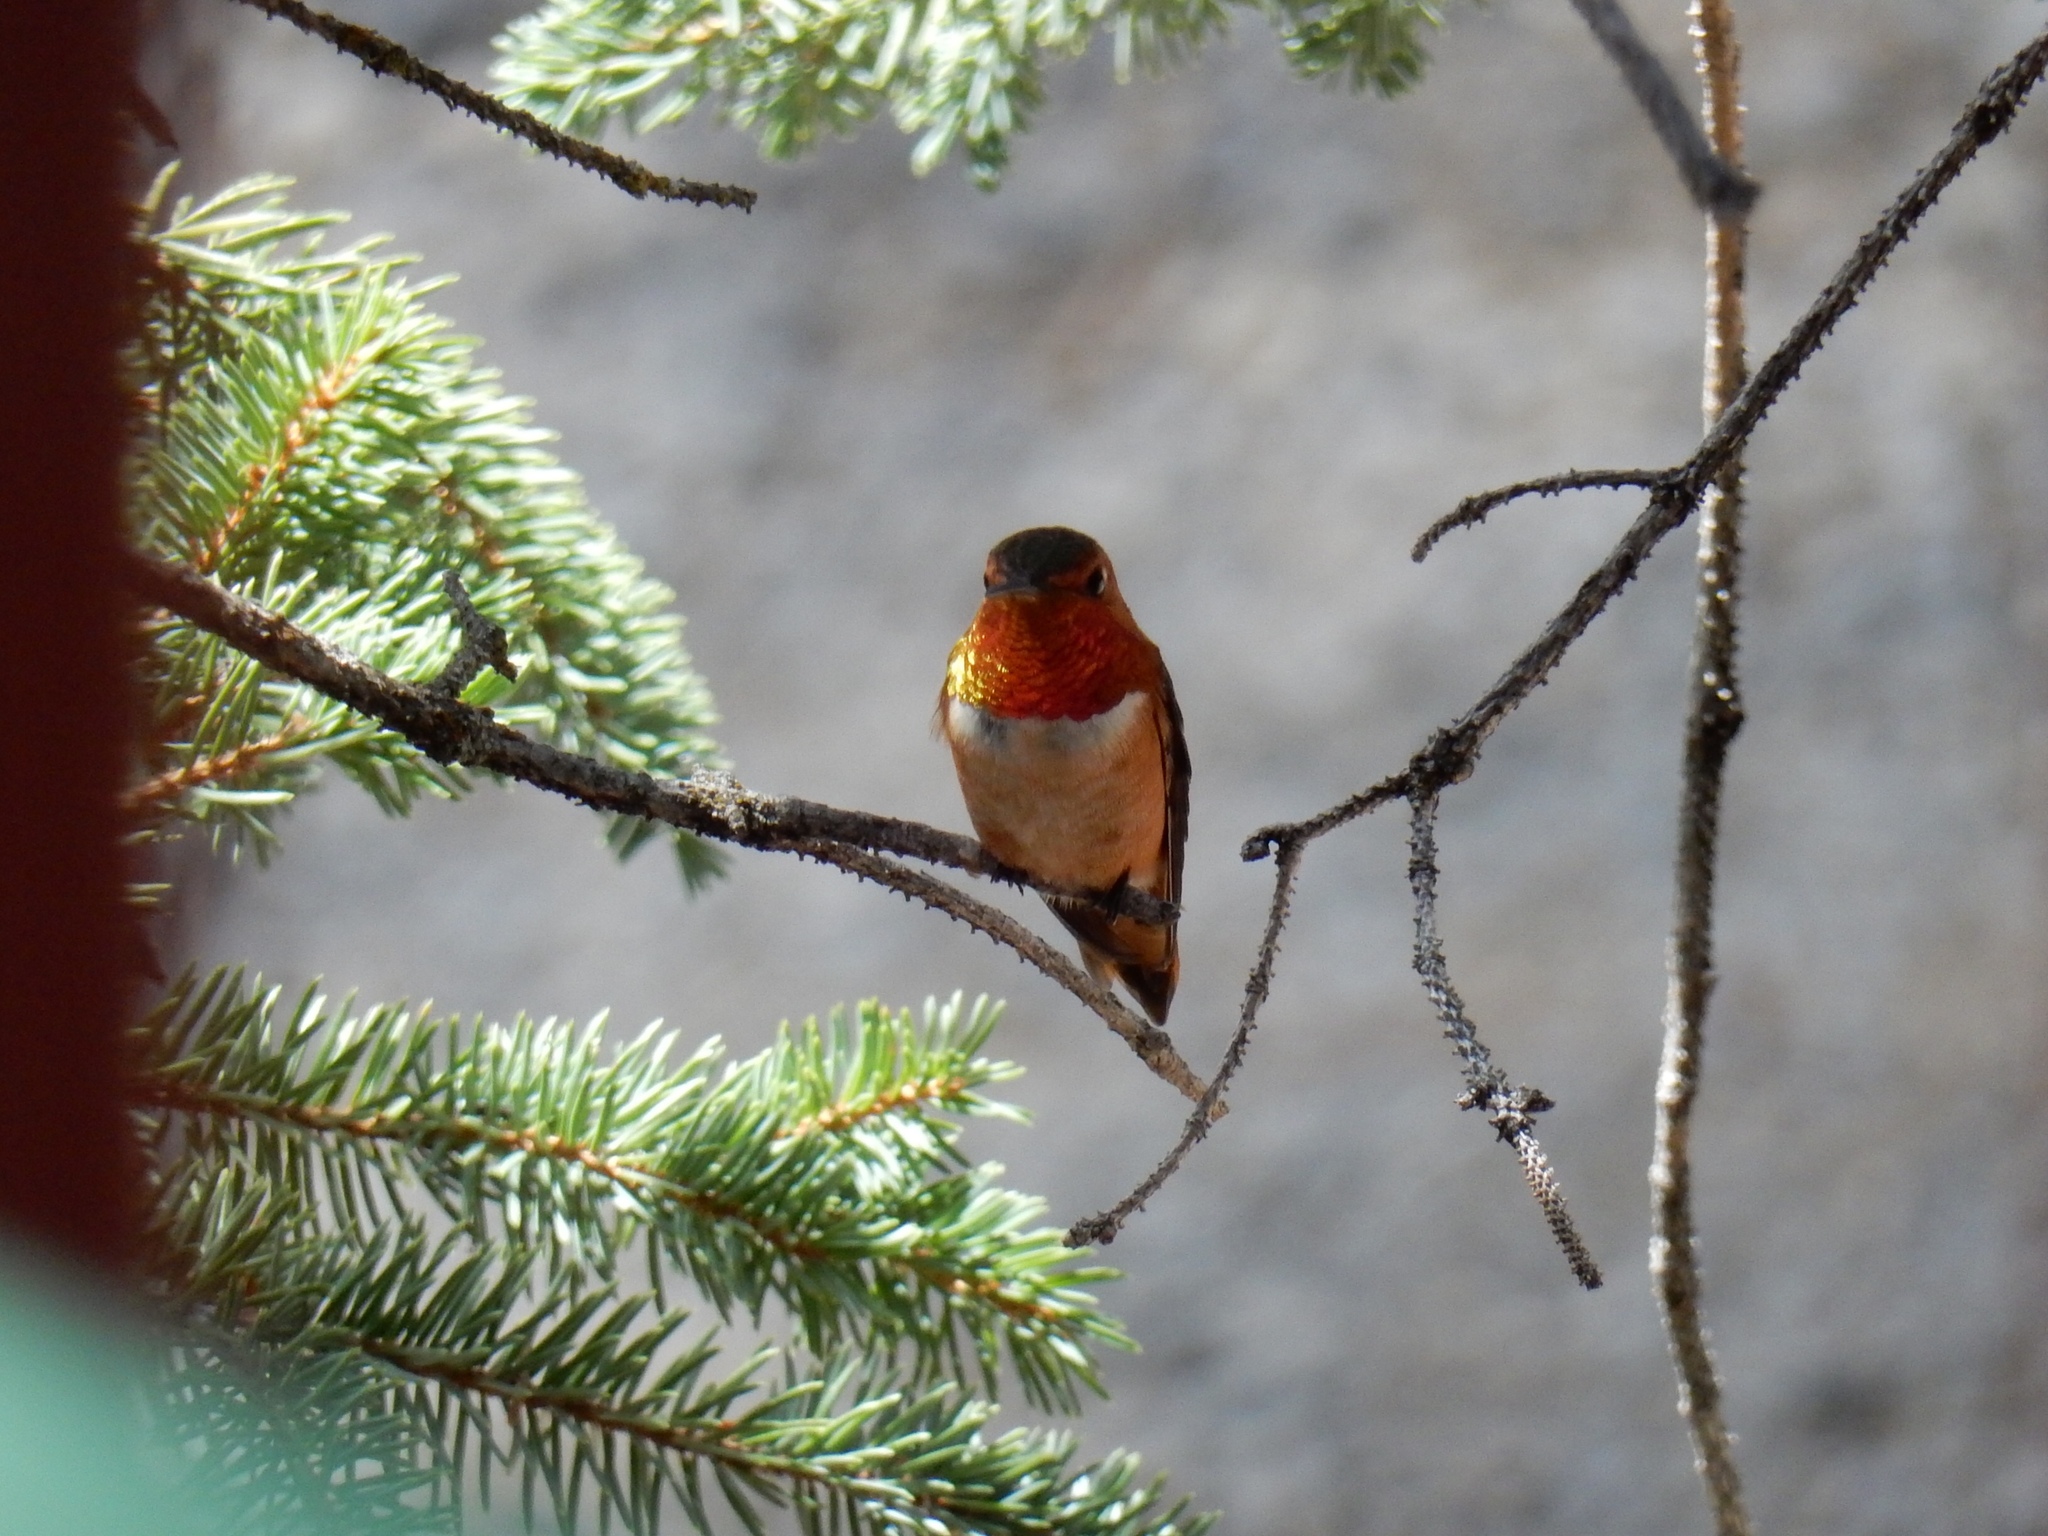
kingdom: Animalia
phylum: Chordata
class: Aves
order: Apodiformes
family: Trochilidae
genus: Selasphorus
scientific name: Selasphorus rufus
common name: Rufous hummingbird
